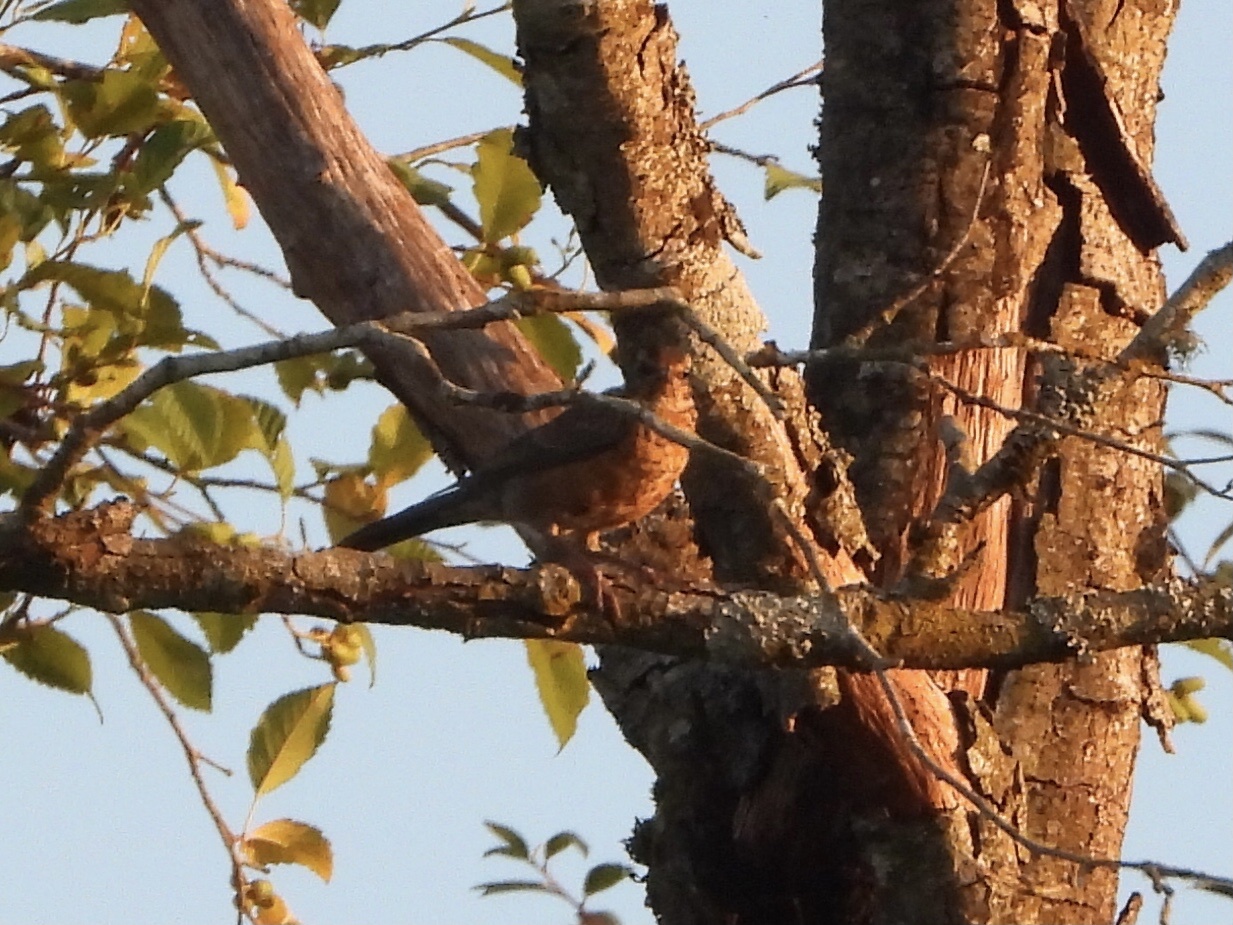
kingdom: Animalia
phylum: Chordata
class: Aves
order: Passeriformes
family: Turdidae
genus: Turdus
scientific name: Turdus migratorius
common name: American robin
